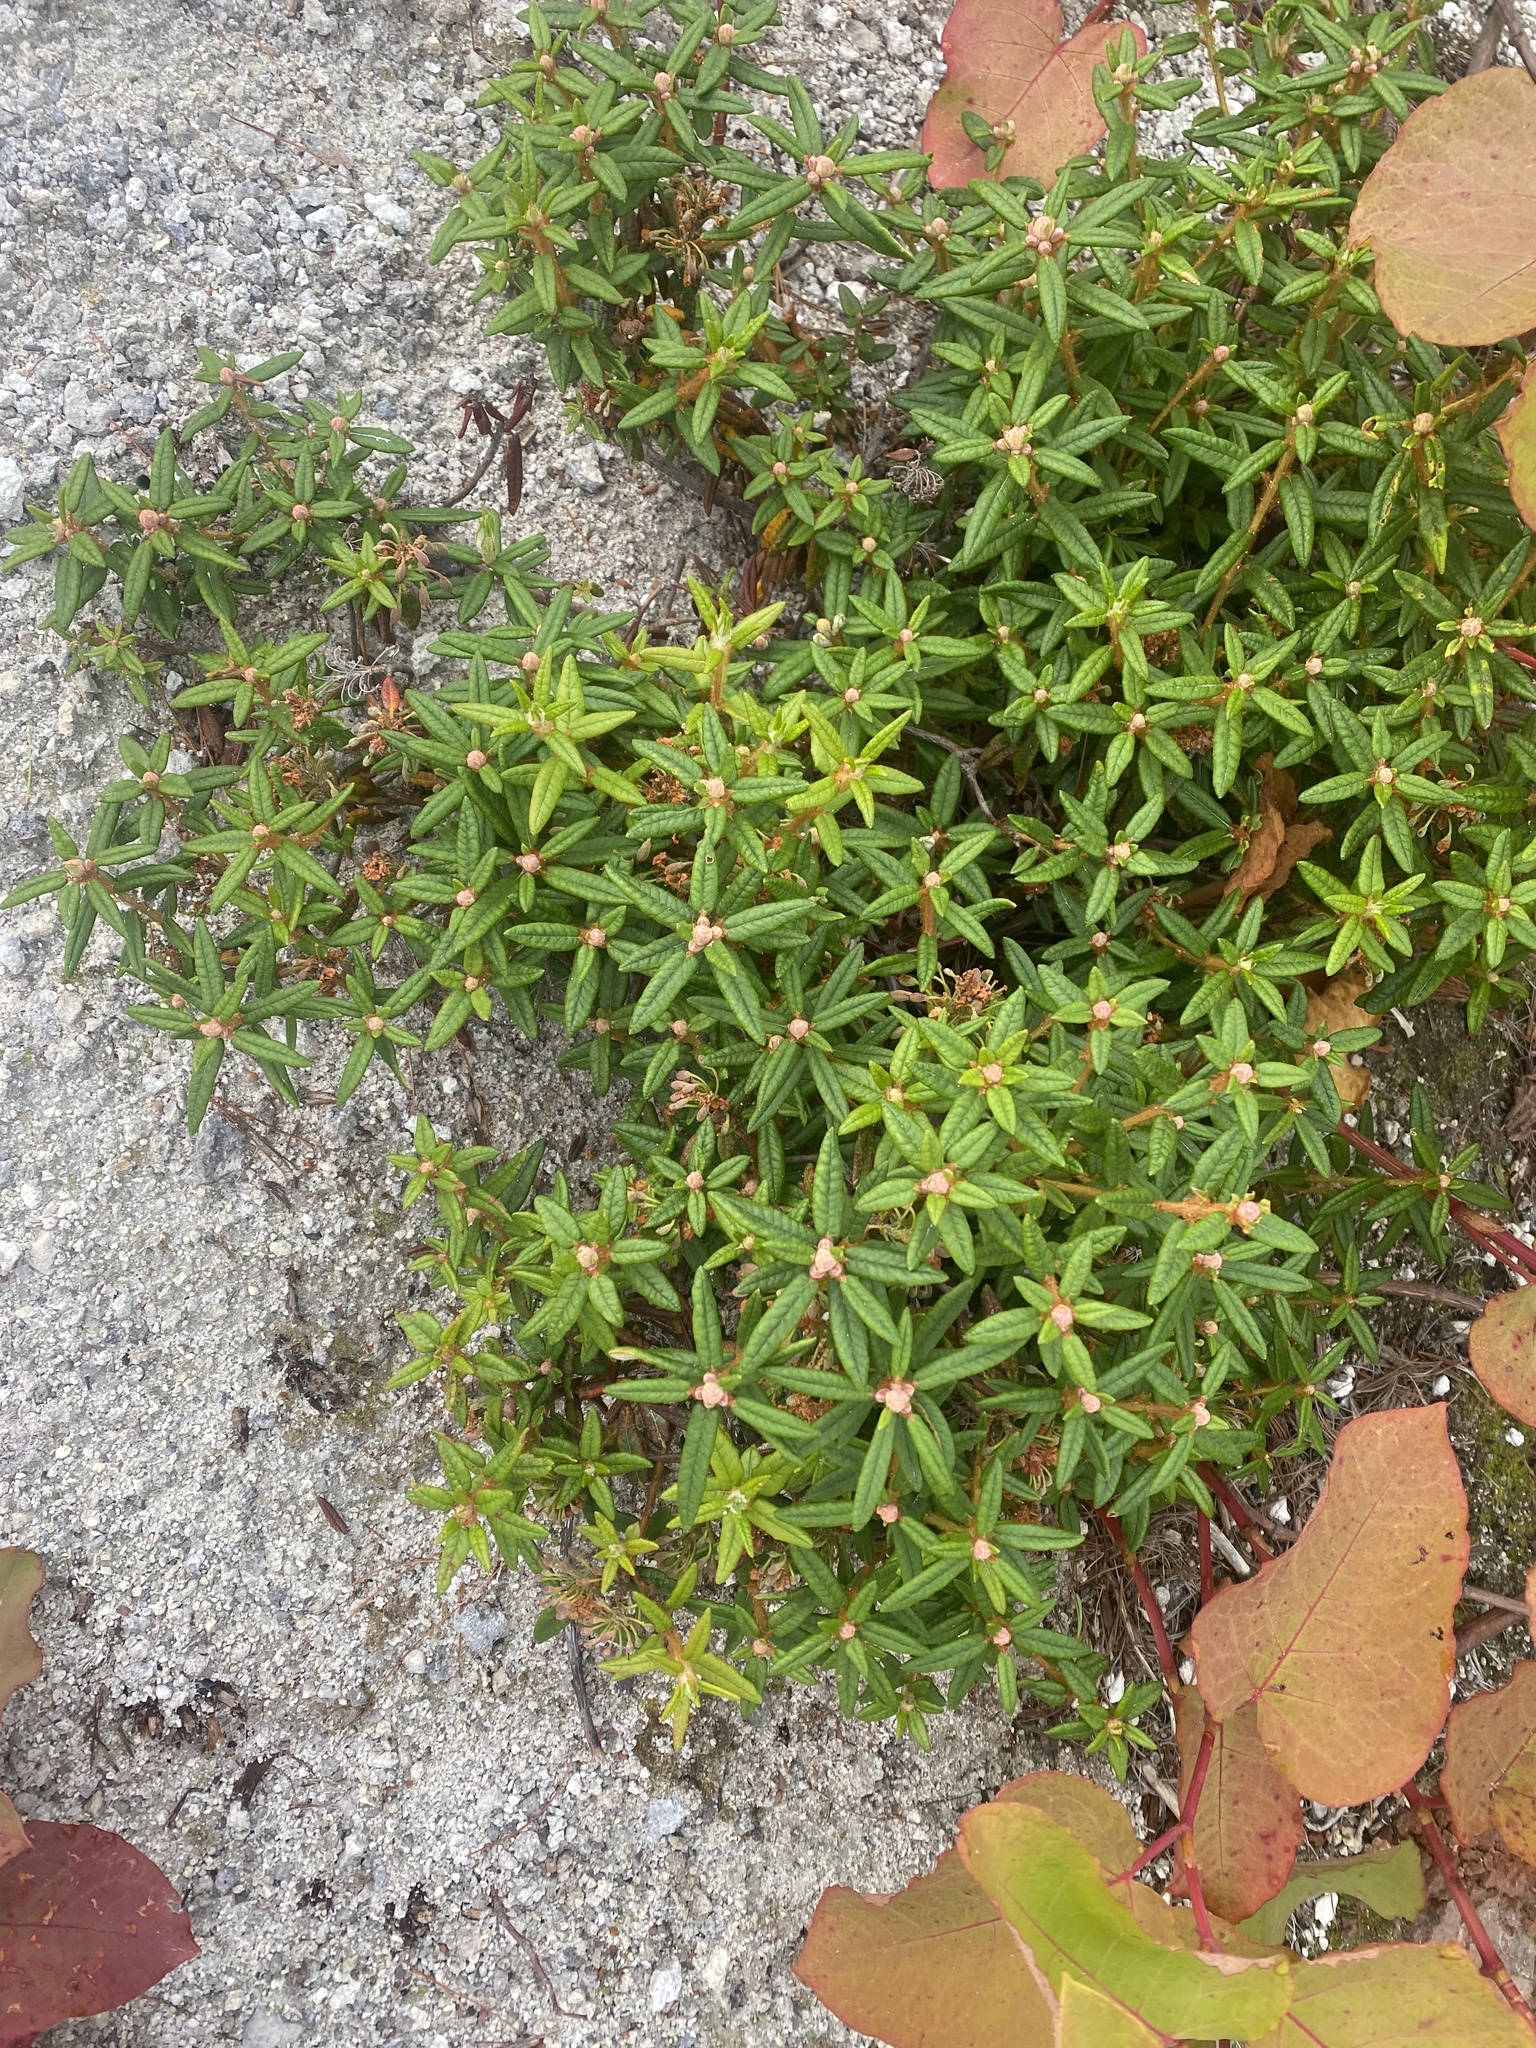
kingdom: Plantae
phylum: Tracheophyta
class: Magnoliopsida
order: Ericales
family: Ericaceae
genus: Rhododendron
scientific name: Rhododendron tomentosum
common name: Marsh labrador tea
